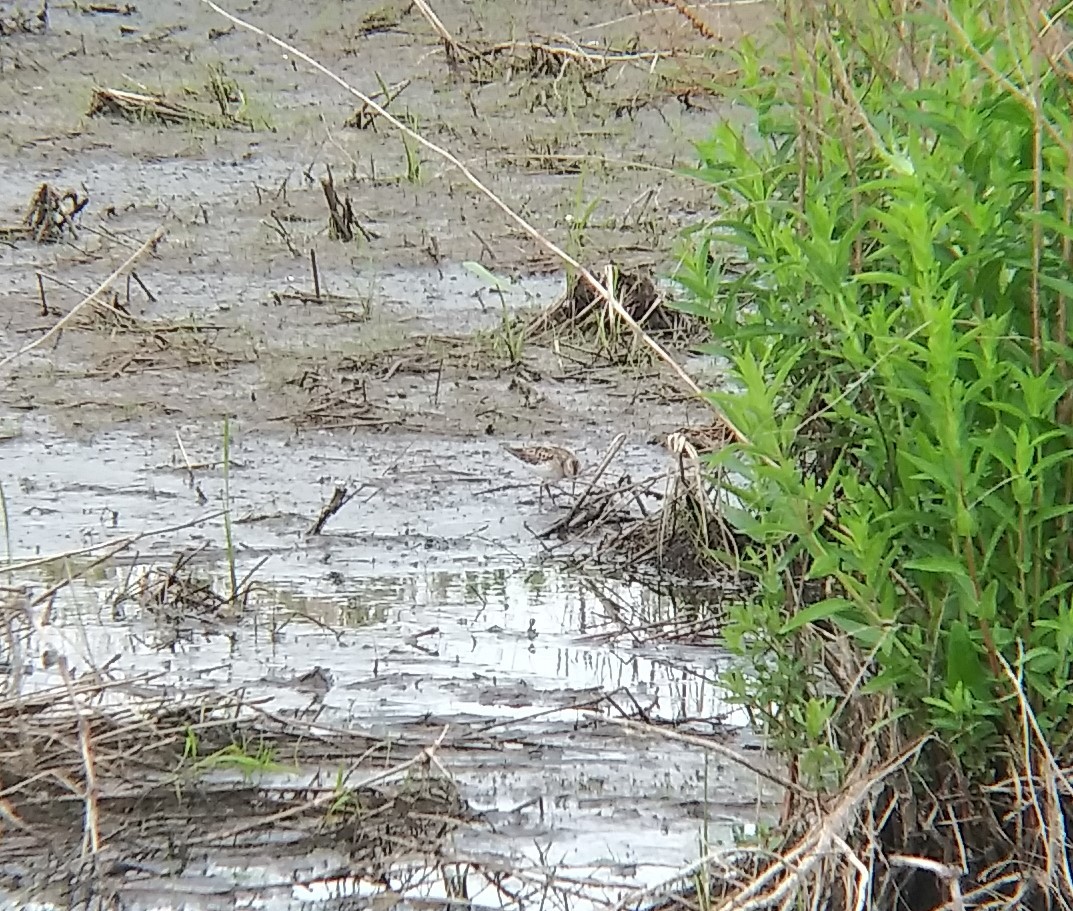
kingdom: Animalia
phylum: Chordata
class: Aves
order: Charadriiformes
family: Scolopacidae
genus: Calidris
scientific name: Calidris minutilla
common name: Least sandpiper
